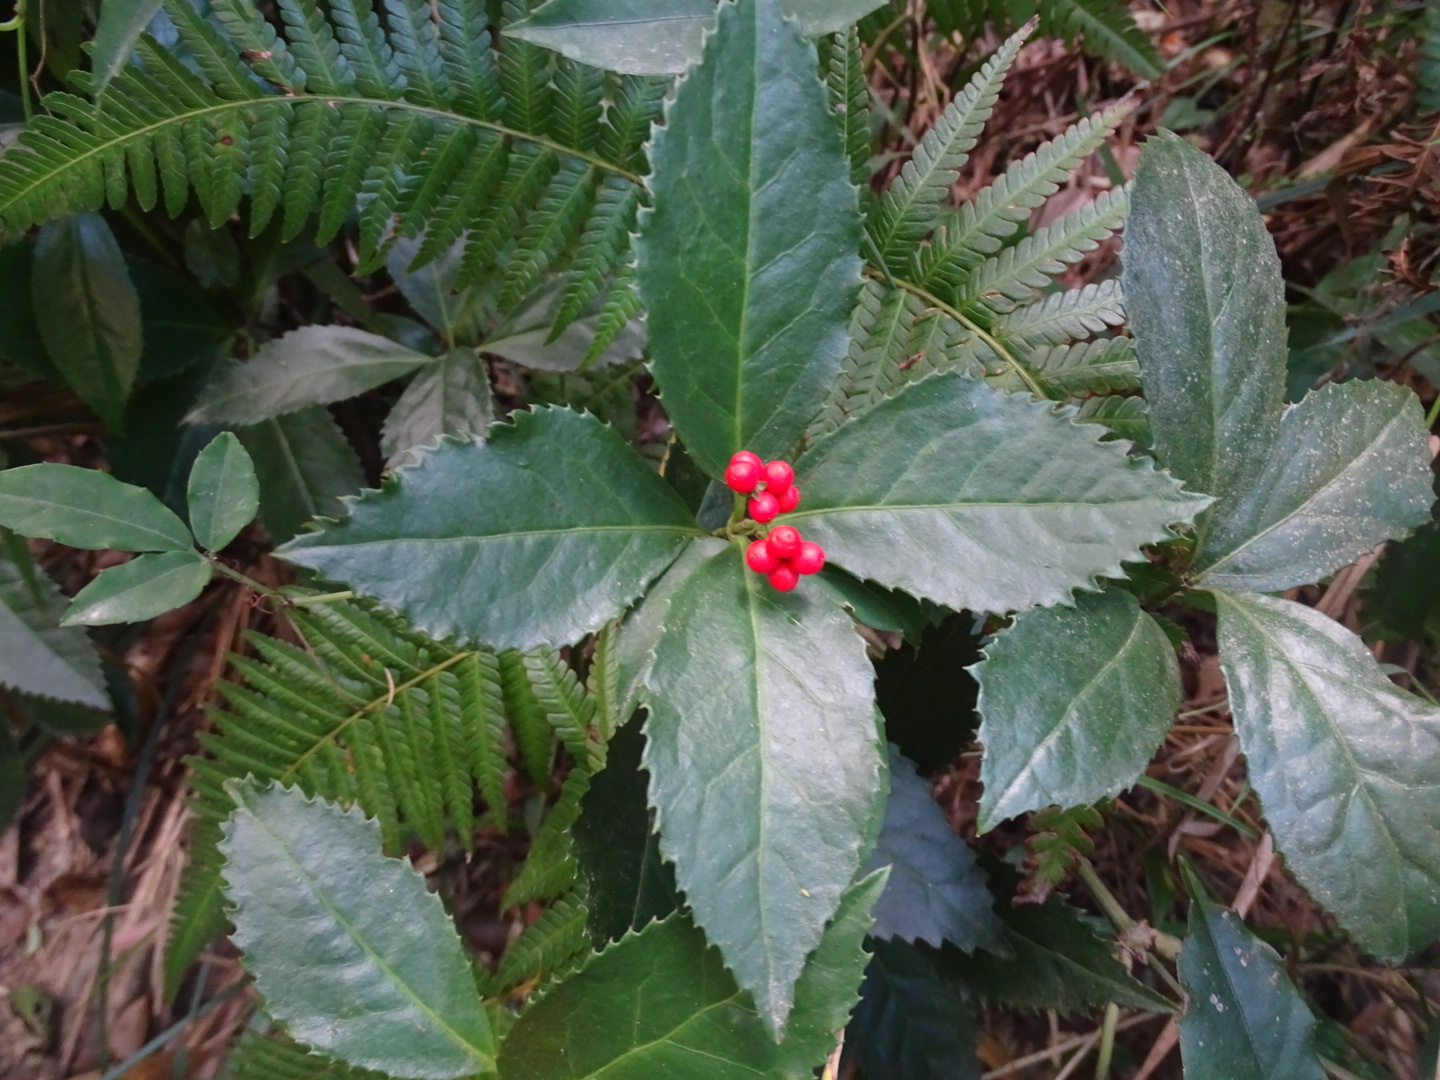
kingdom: Plantae
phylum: Tracheophyta
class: Magnoliopsida
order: Chloranthales
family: Chloranthaceae
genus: Sarcandra
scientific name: Sarcandra glabra
